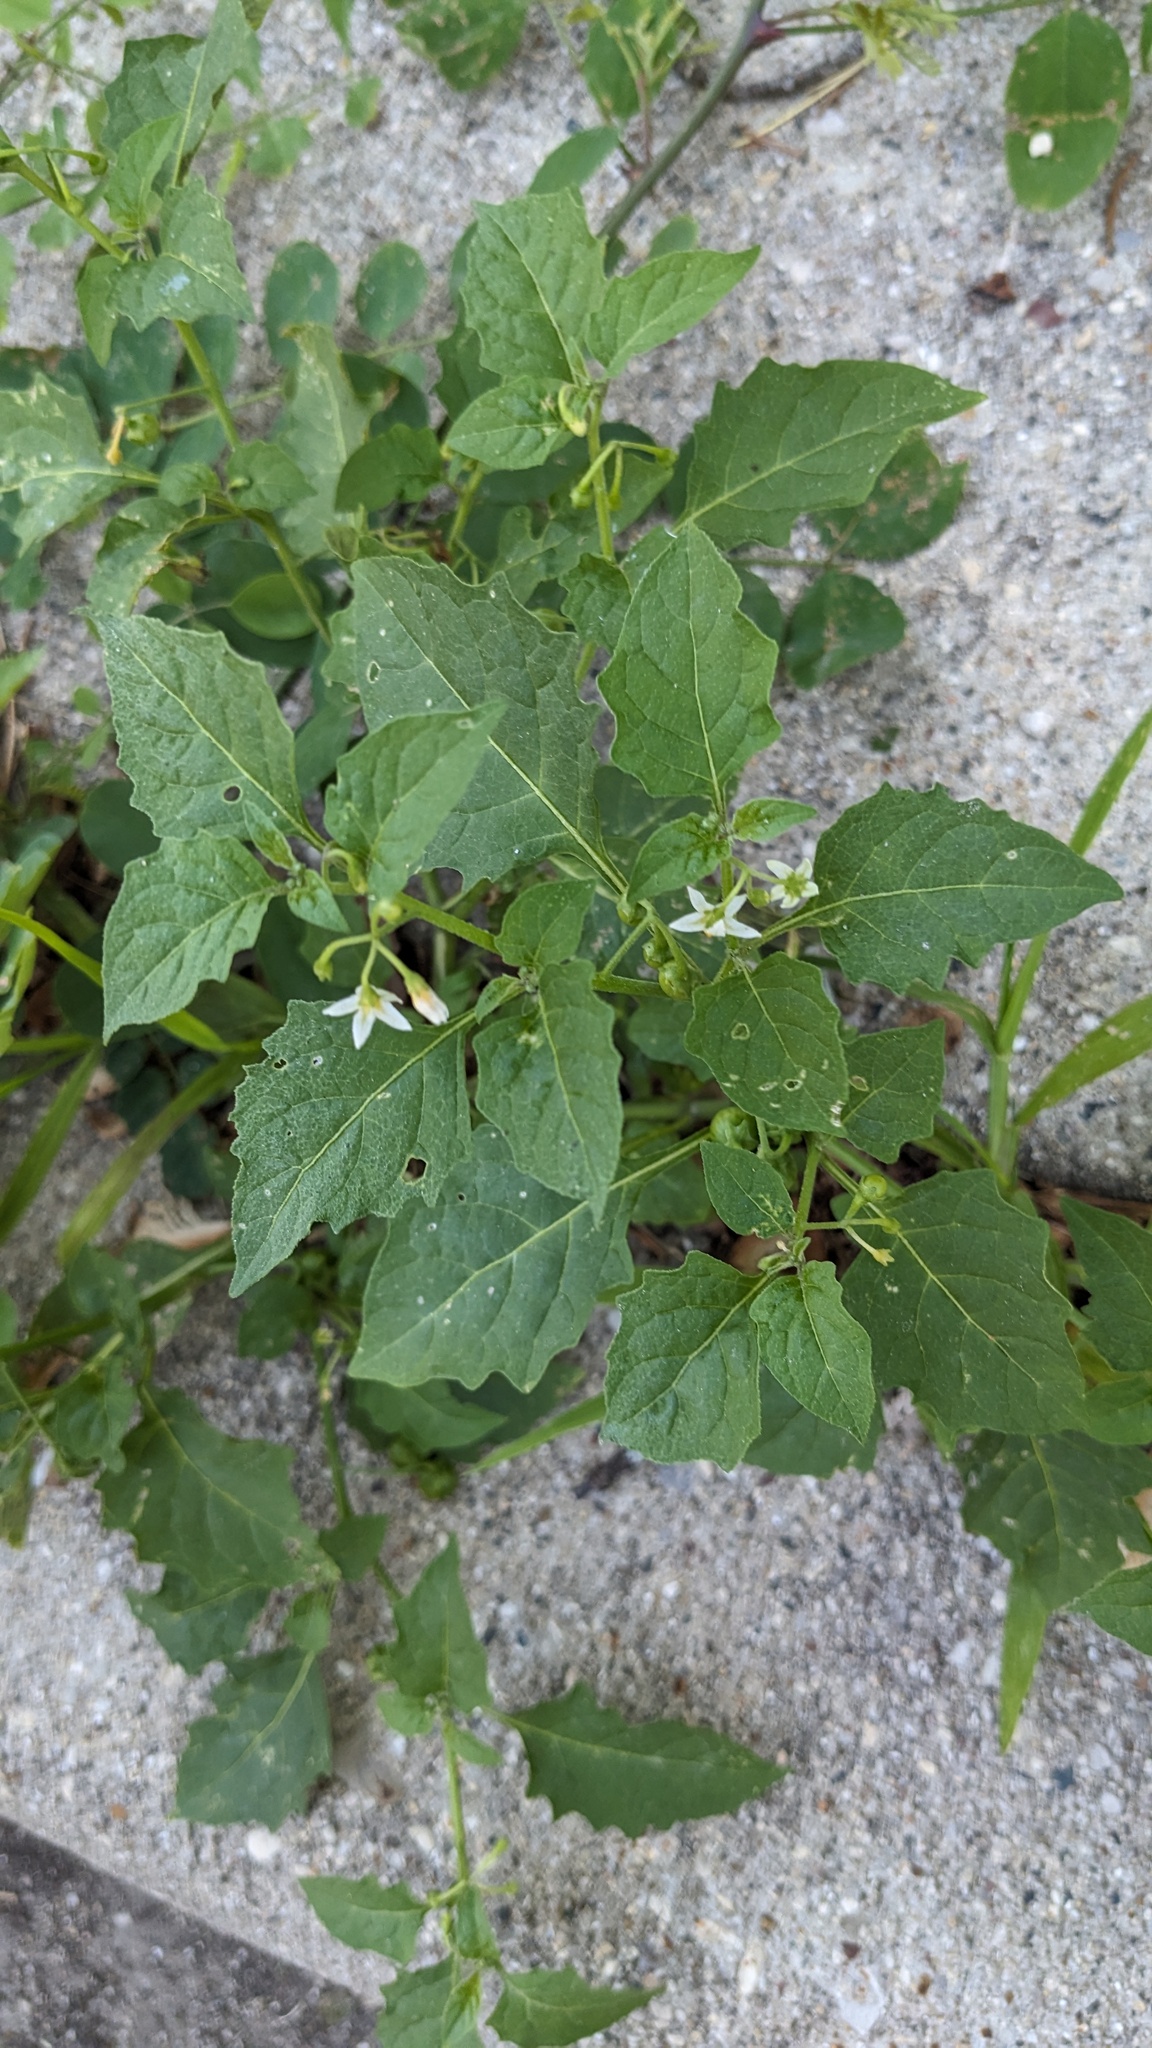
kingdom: Plantae
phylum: Tracheophyta
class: Magnoliopsida
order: Solanales
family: Solanaceae
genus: Solanum
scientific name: Solanum emulans
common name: Eastern black nightshade
